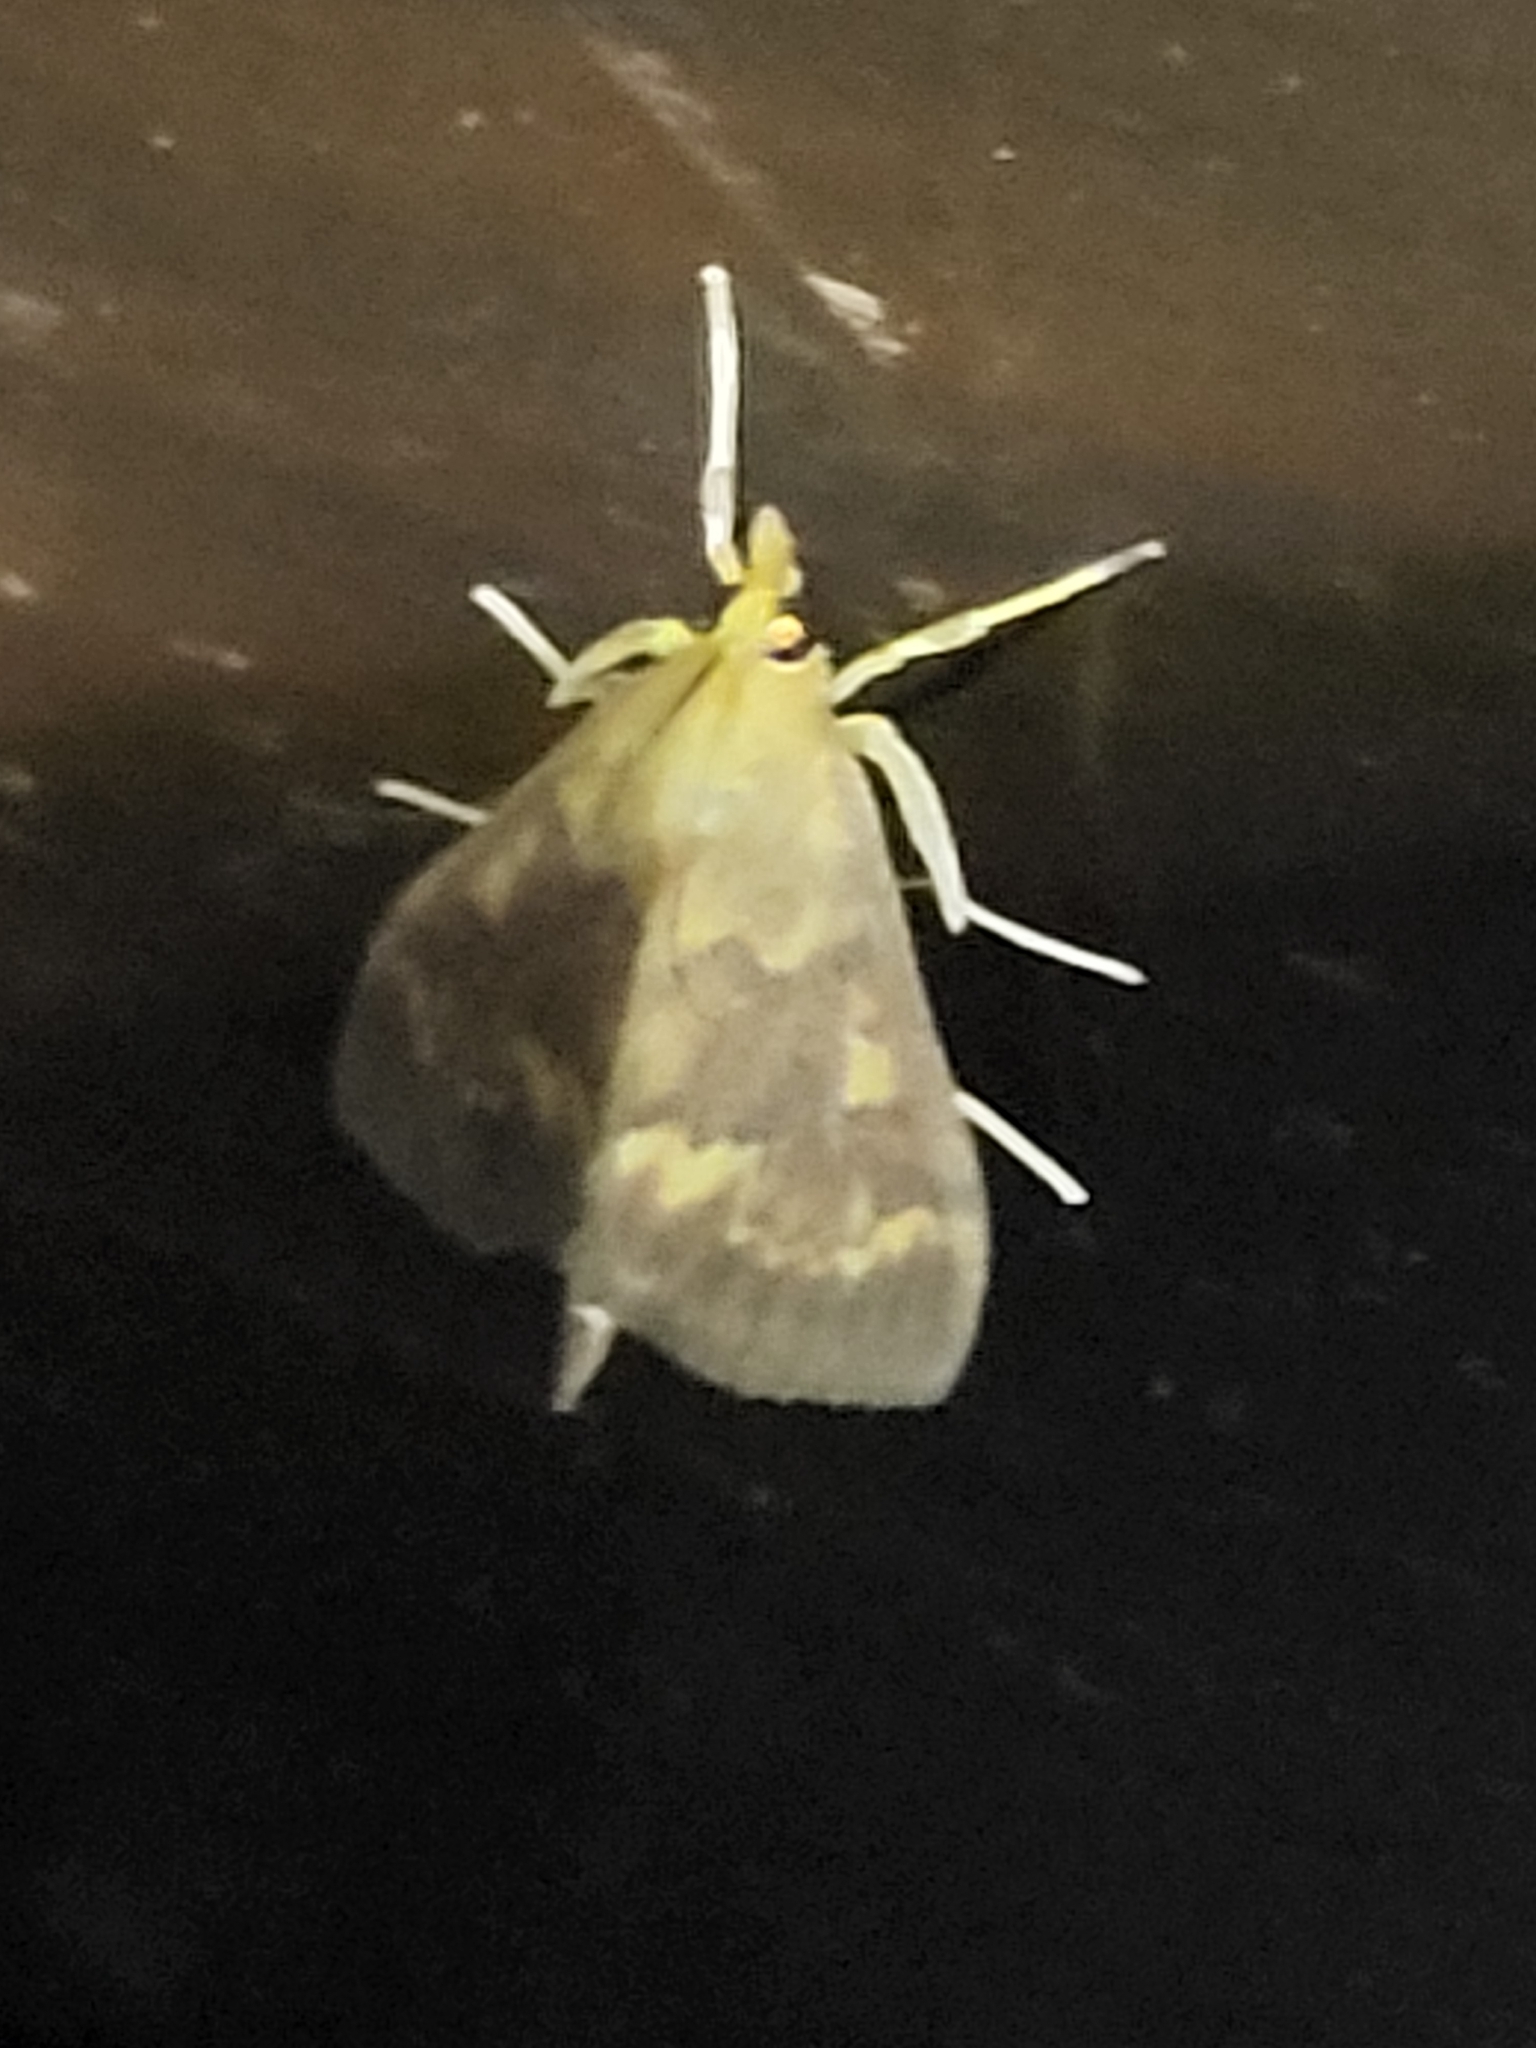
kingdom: Animalia
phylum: Arthropoda
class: Insecta
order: Lepidoptera
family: Crambidae
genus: Ostrinia
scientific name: Ostrinia nubilalis
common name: European corn borer
